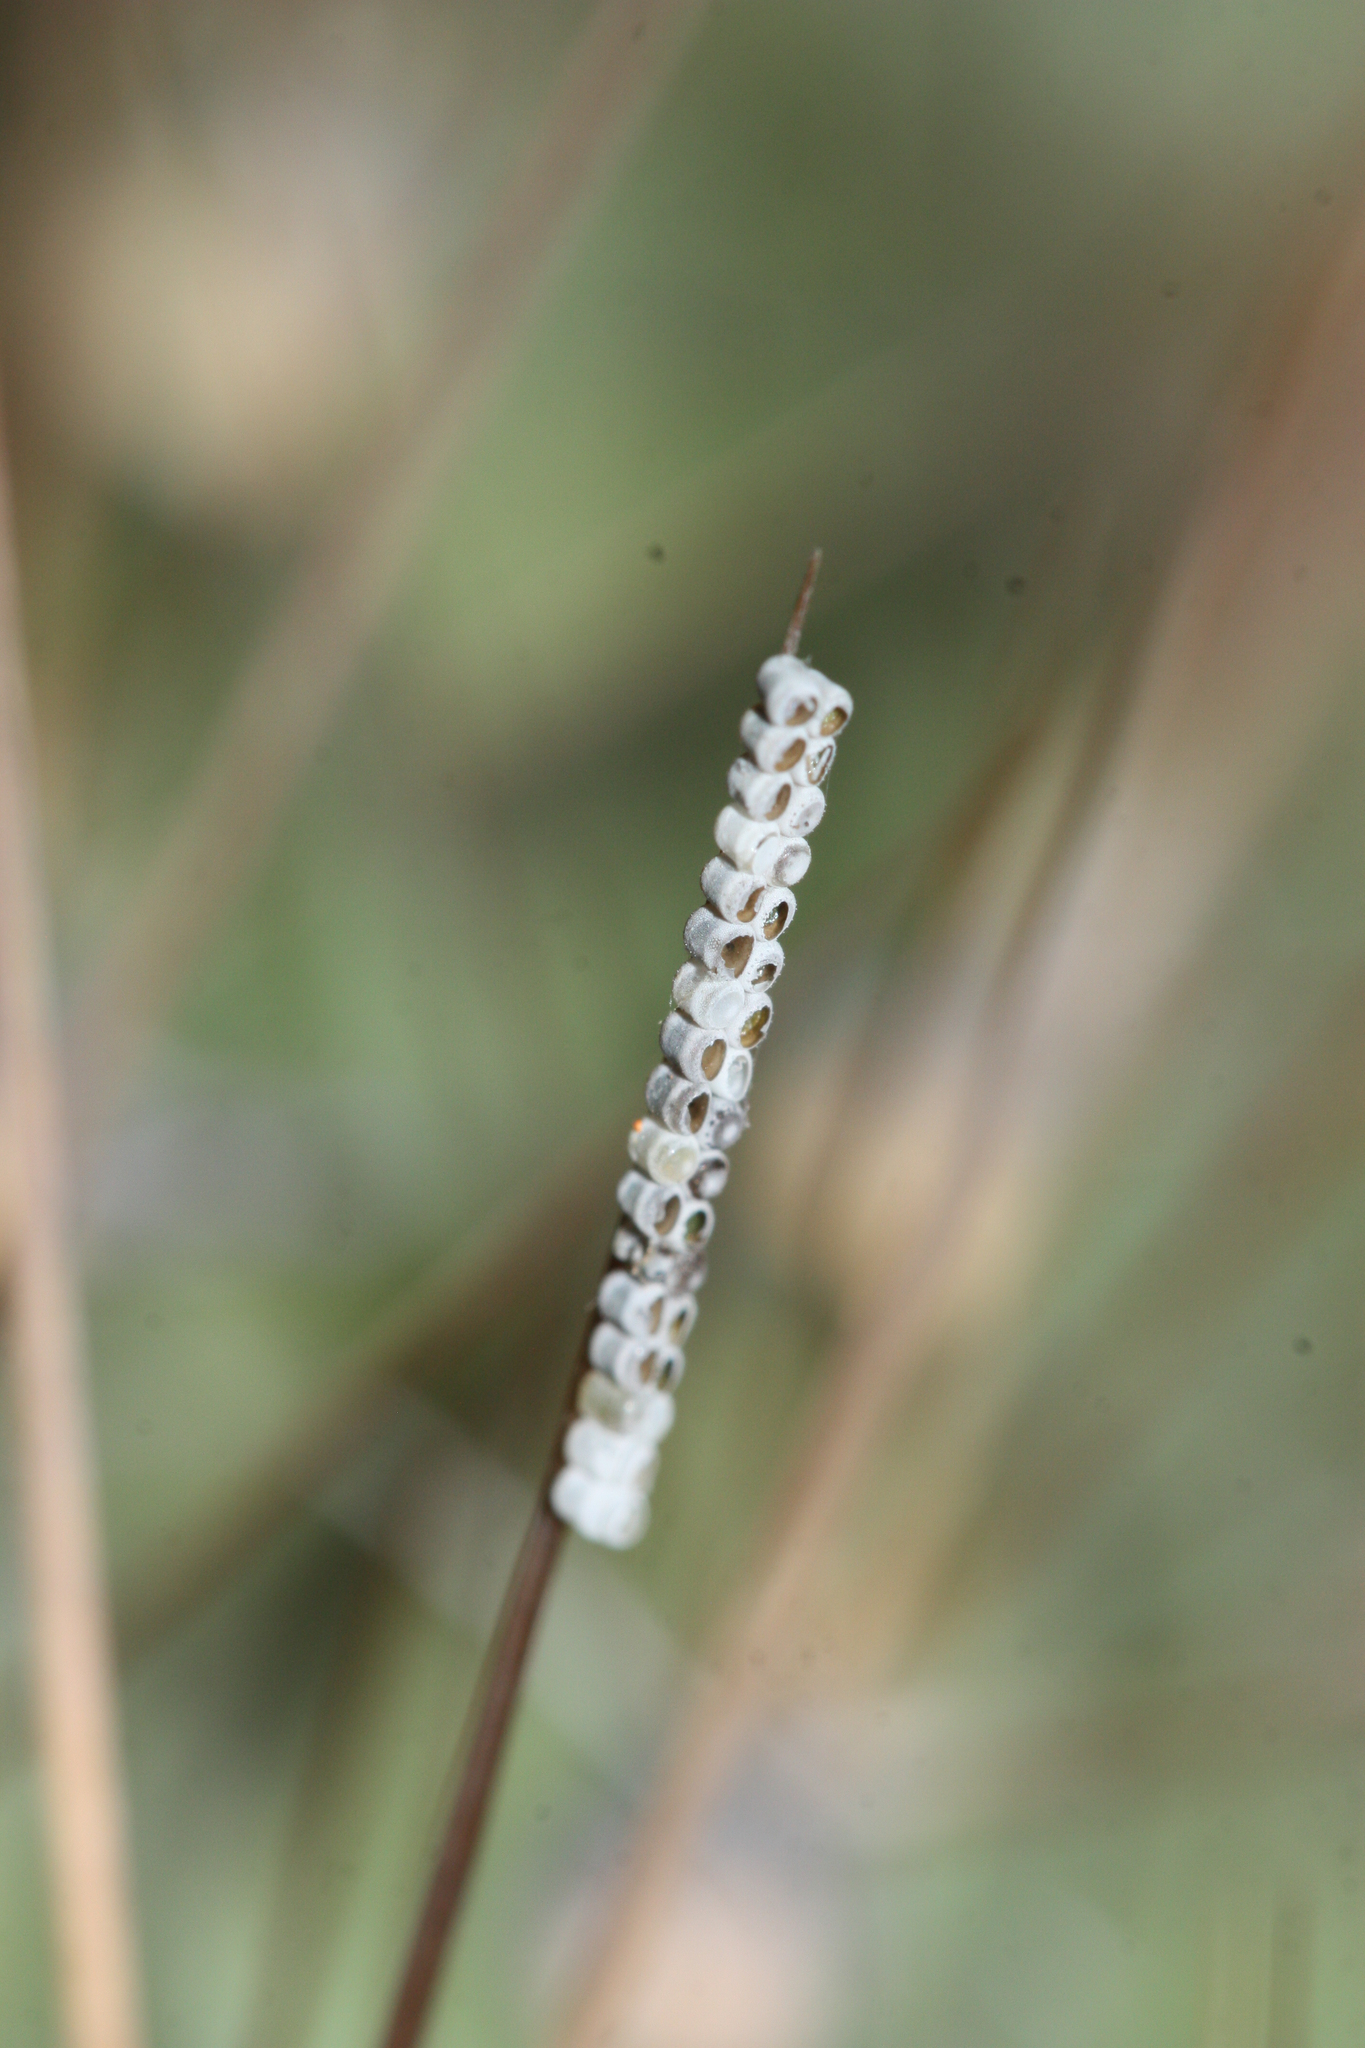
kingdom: Animalia
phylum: Arthropoda
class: Insecta
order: Hemiptera
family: Pentatomidae
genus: Chlorochroa
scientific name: Chlorochroa opuntiae
